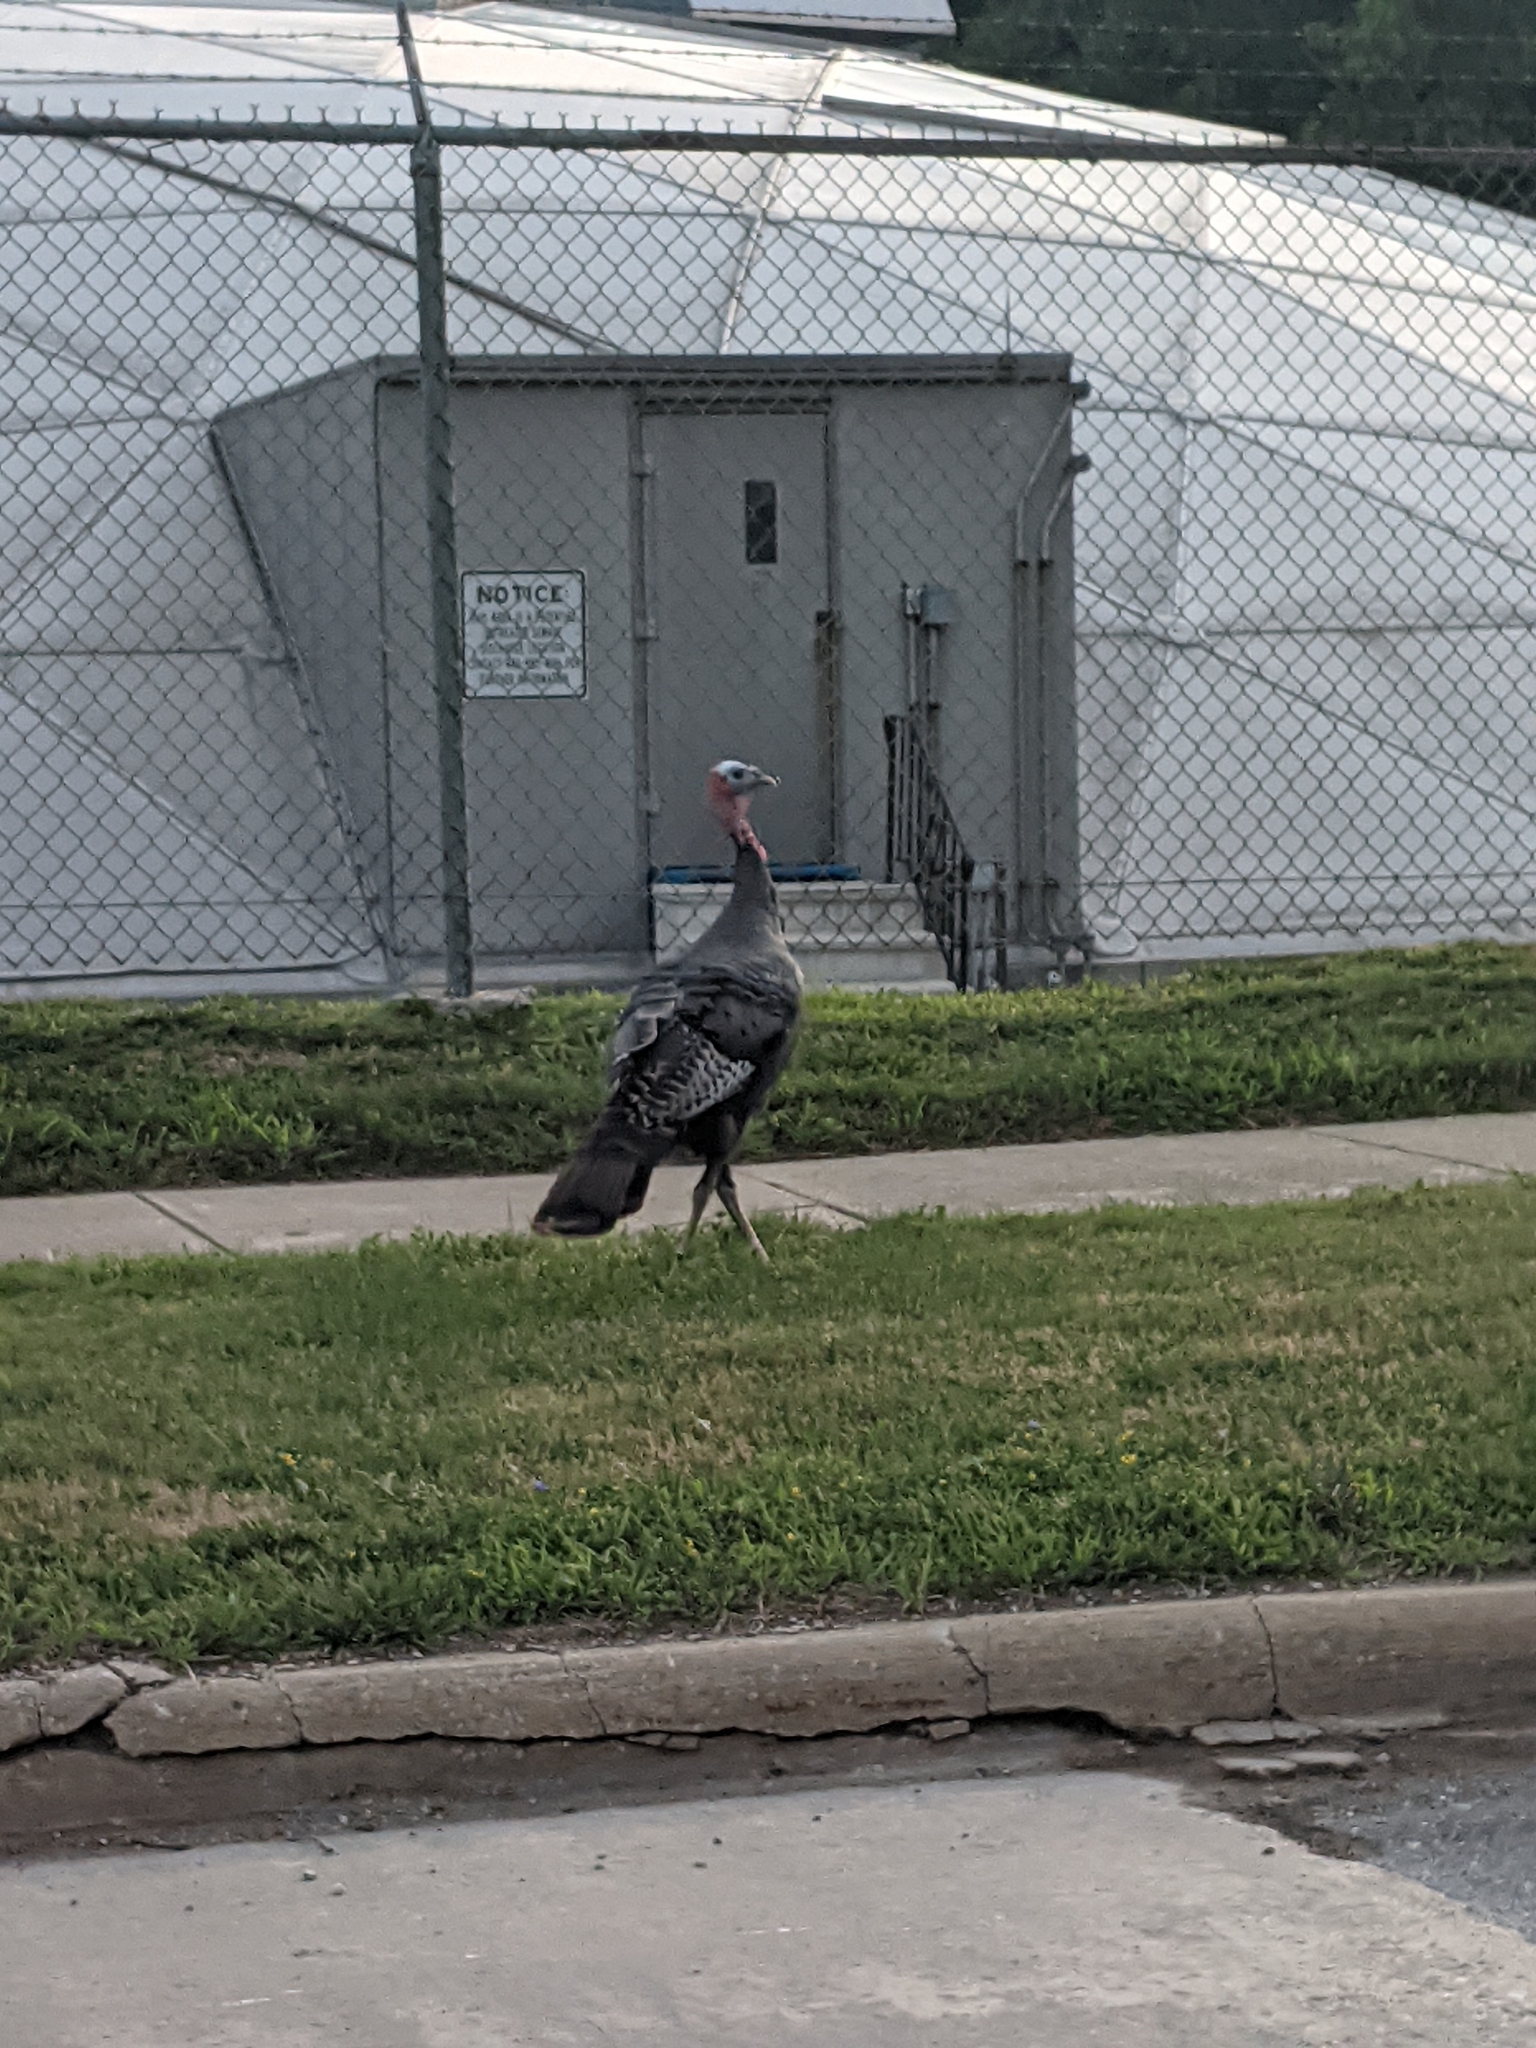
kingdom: Animalia
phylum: Chordata
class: Aves
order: Galliformes
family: Phasianidae
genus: Meleagris
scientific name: Meleagris gallopavo
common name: Wild turkey
